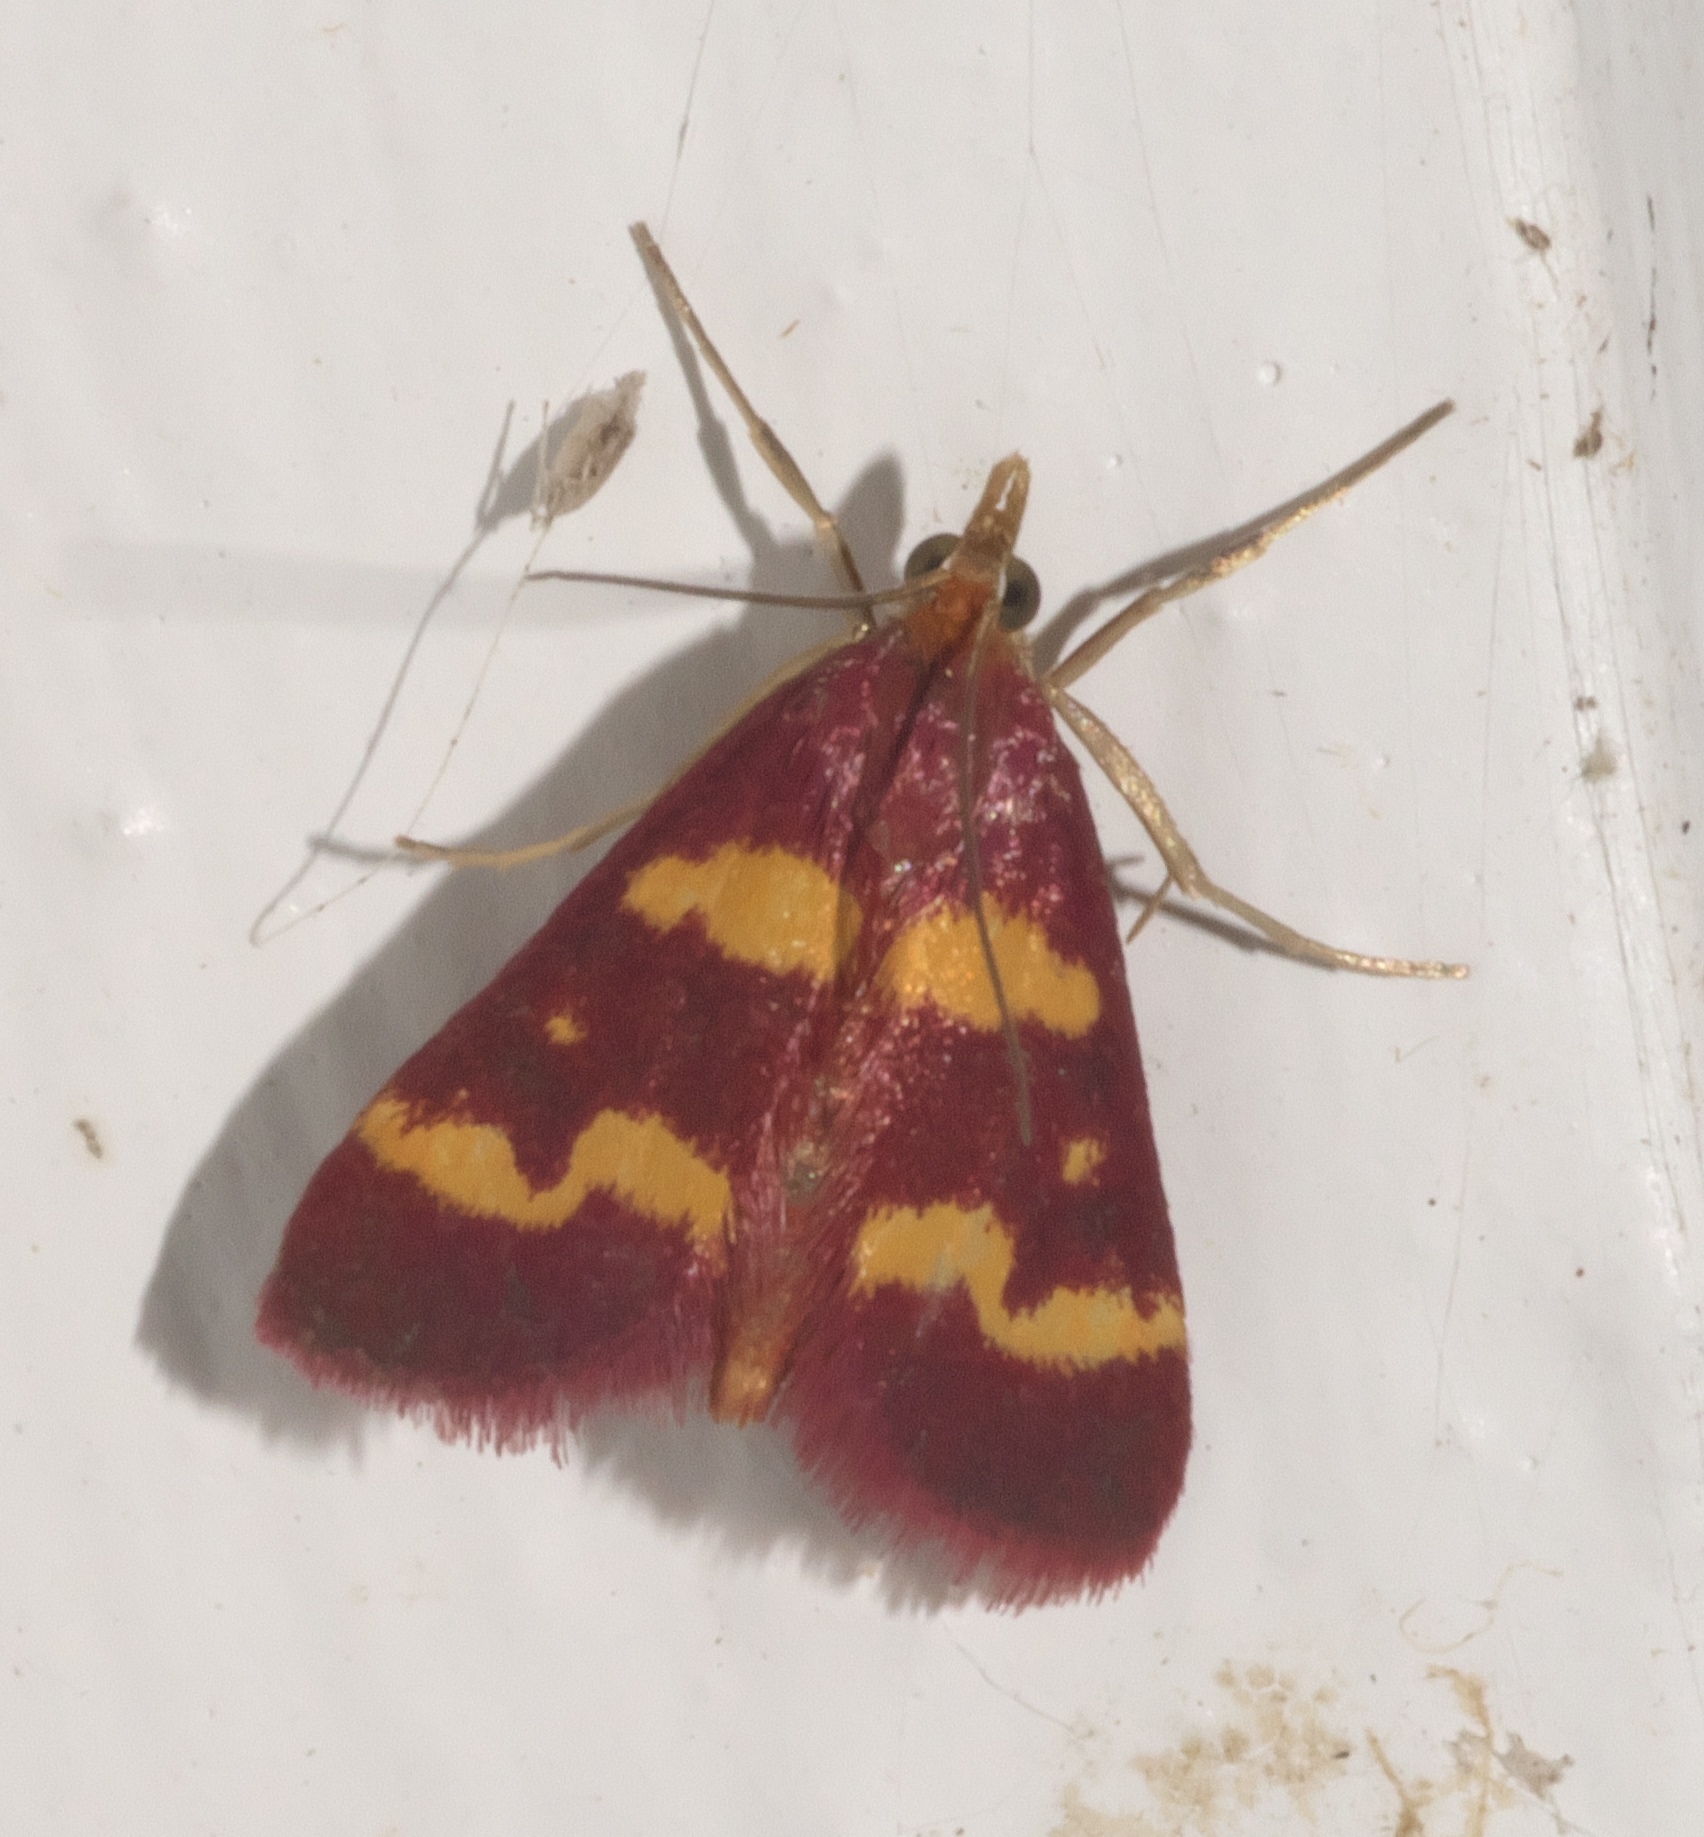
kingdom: Animalia
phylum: Arthropoda
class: Insecta
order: Lepidoptera
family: Crambidae
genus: Pyrausta
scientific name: Pyrausta tyralis
